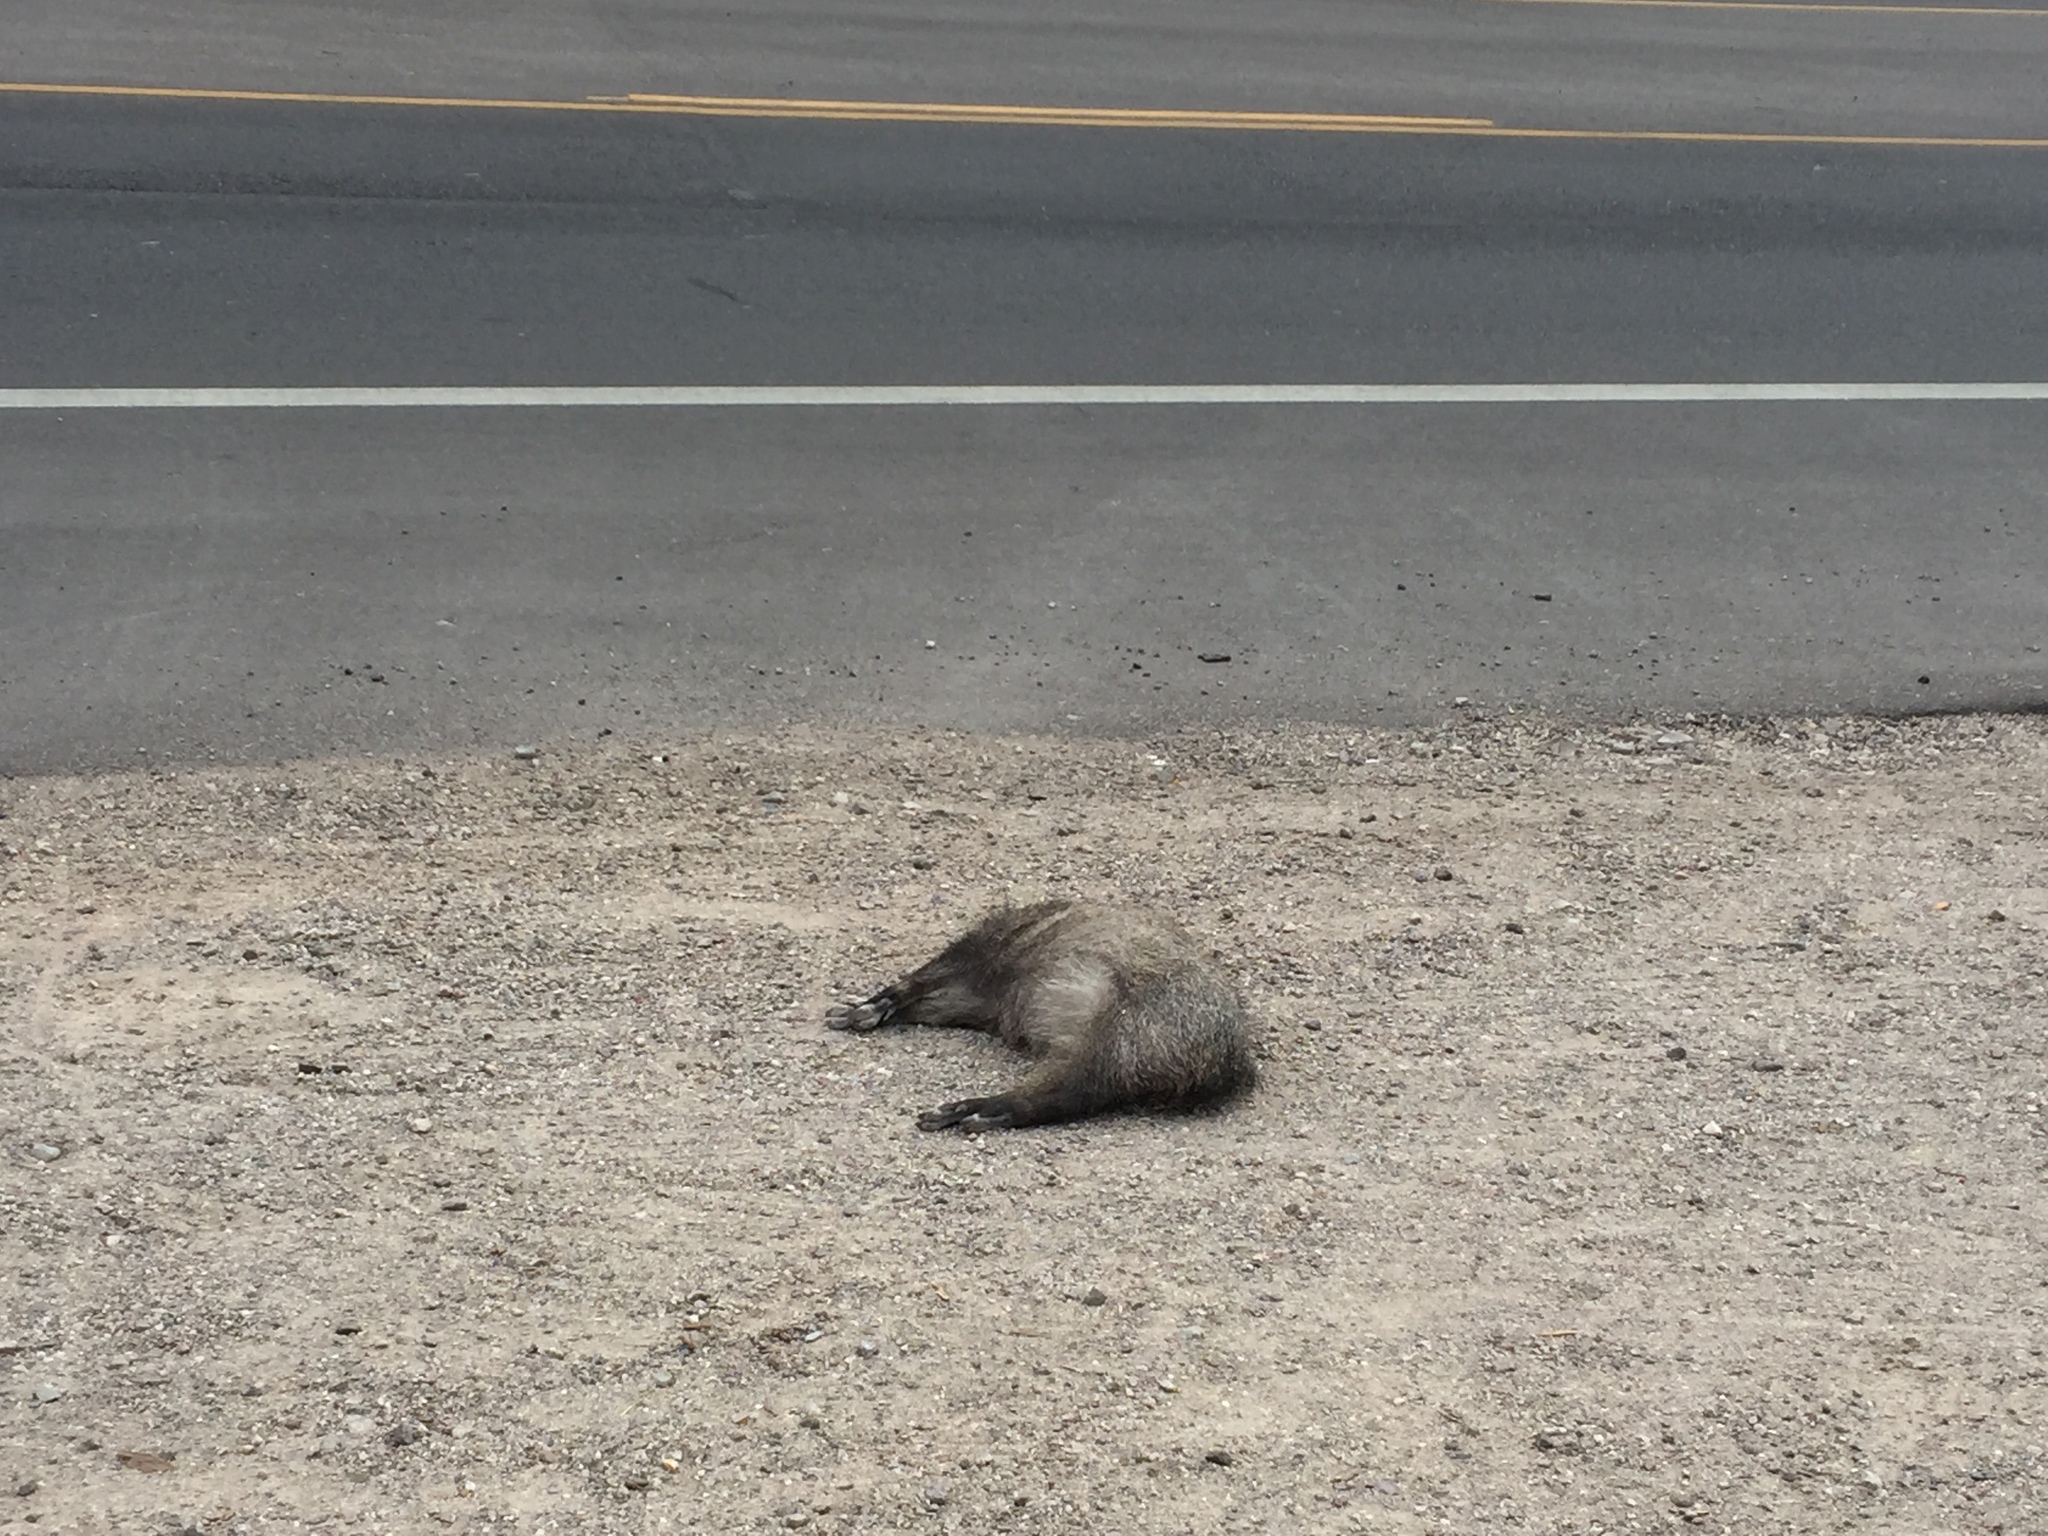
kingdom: Animalia
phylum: Chordata
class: Mammalia
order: Artiodactyla
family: Tayassuidae
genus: Pecari
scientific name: Pecari tajacu
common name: Collared peccary
